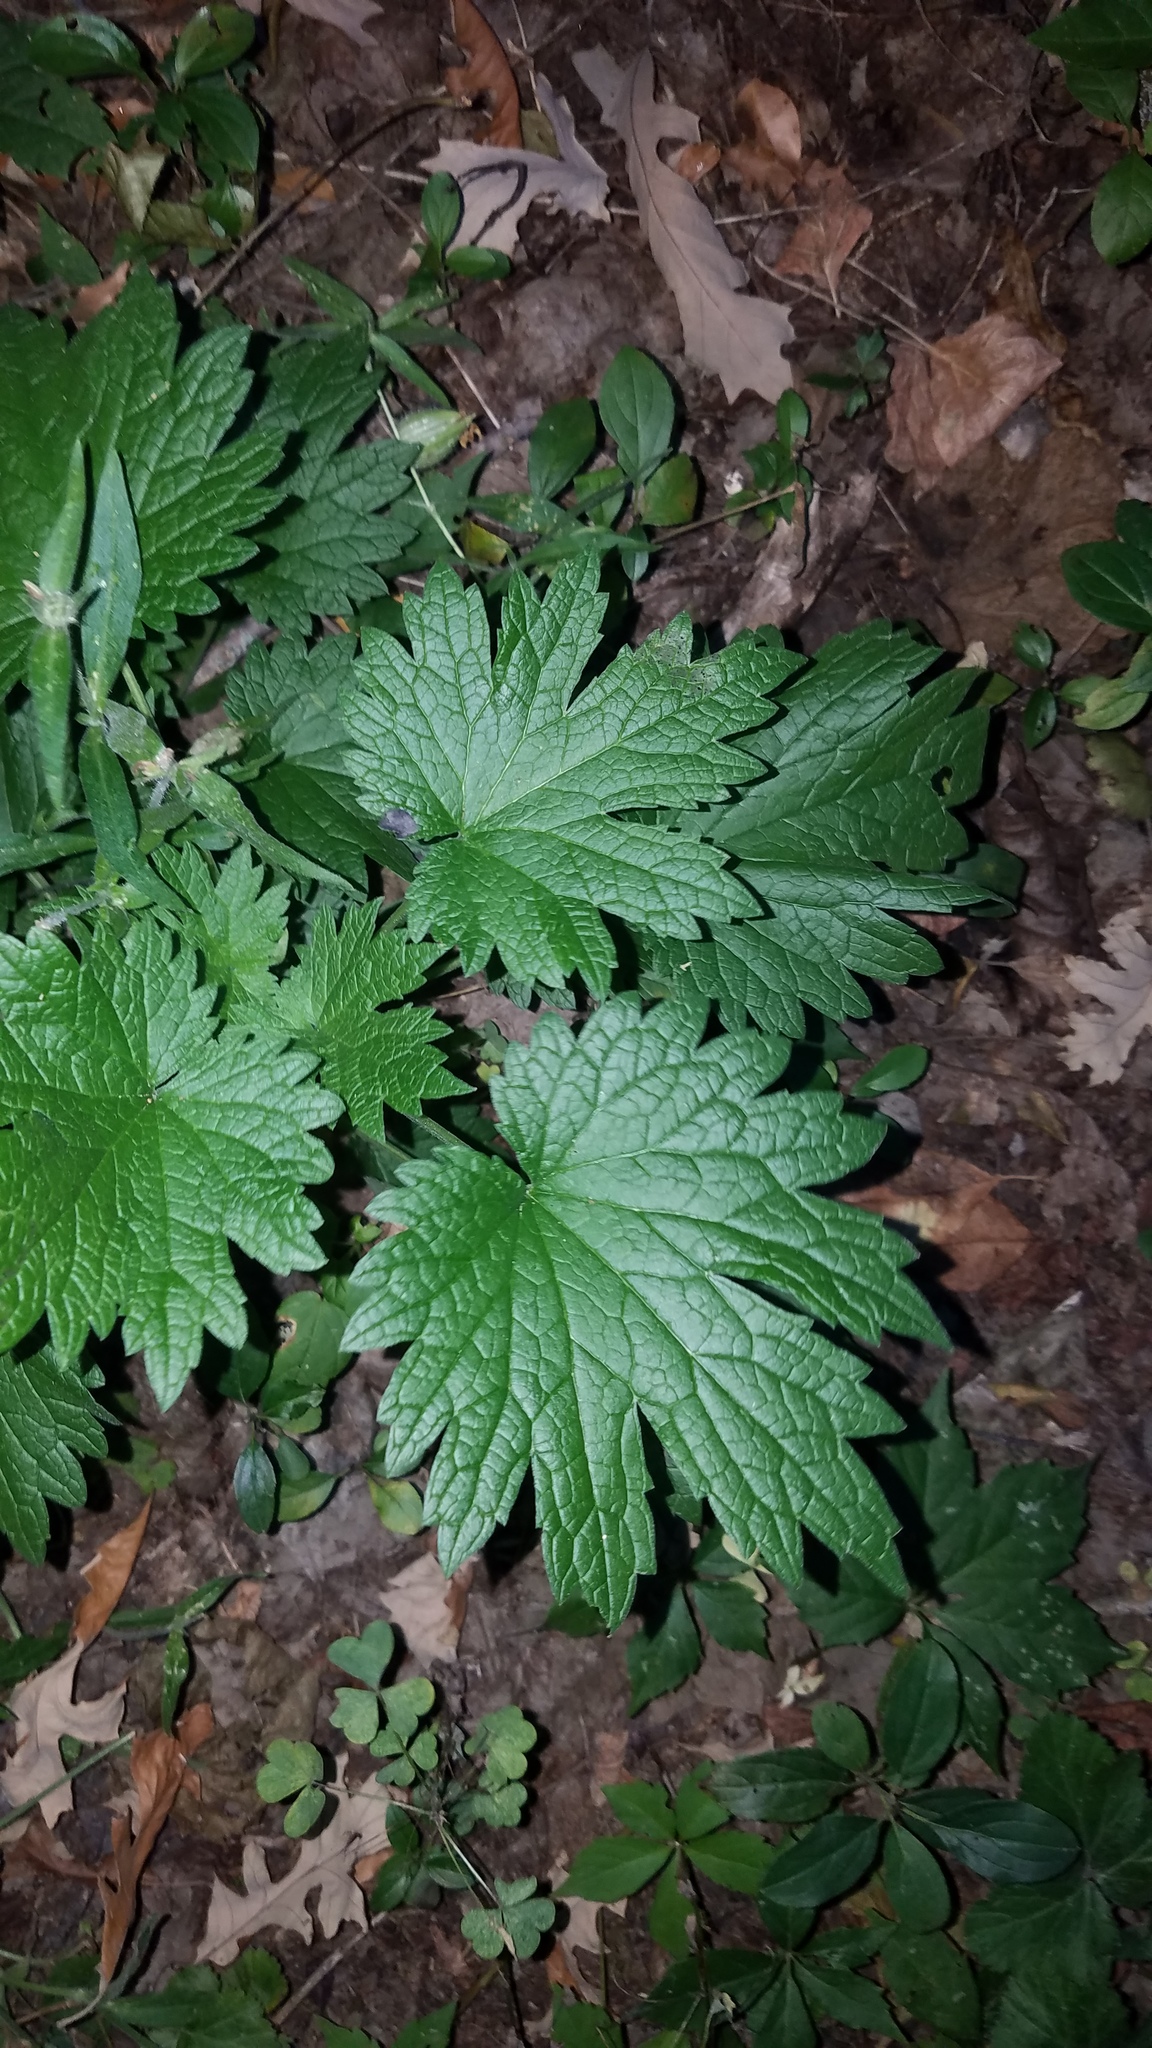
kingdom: Plantae
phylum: Tracheophyta
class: Magnoliopsida
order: Lamiales
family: Lamiaceae
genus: Leonurus
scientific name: Leonurus cardiaca
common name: Motherwort
